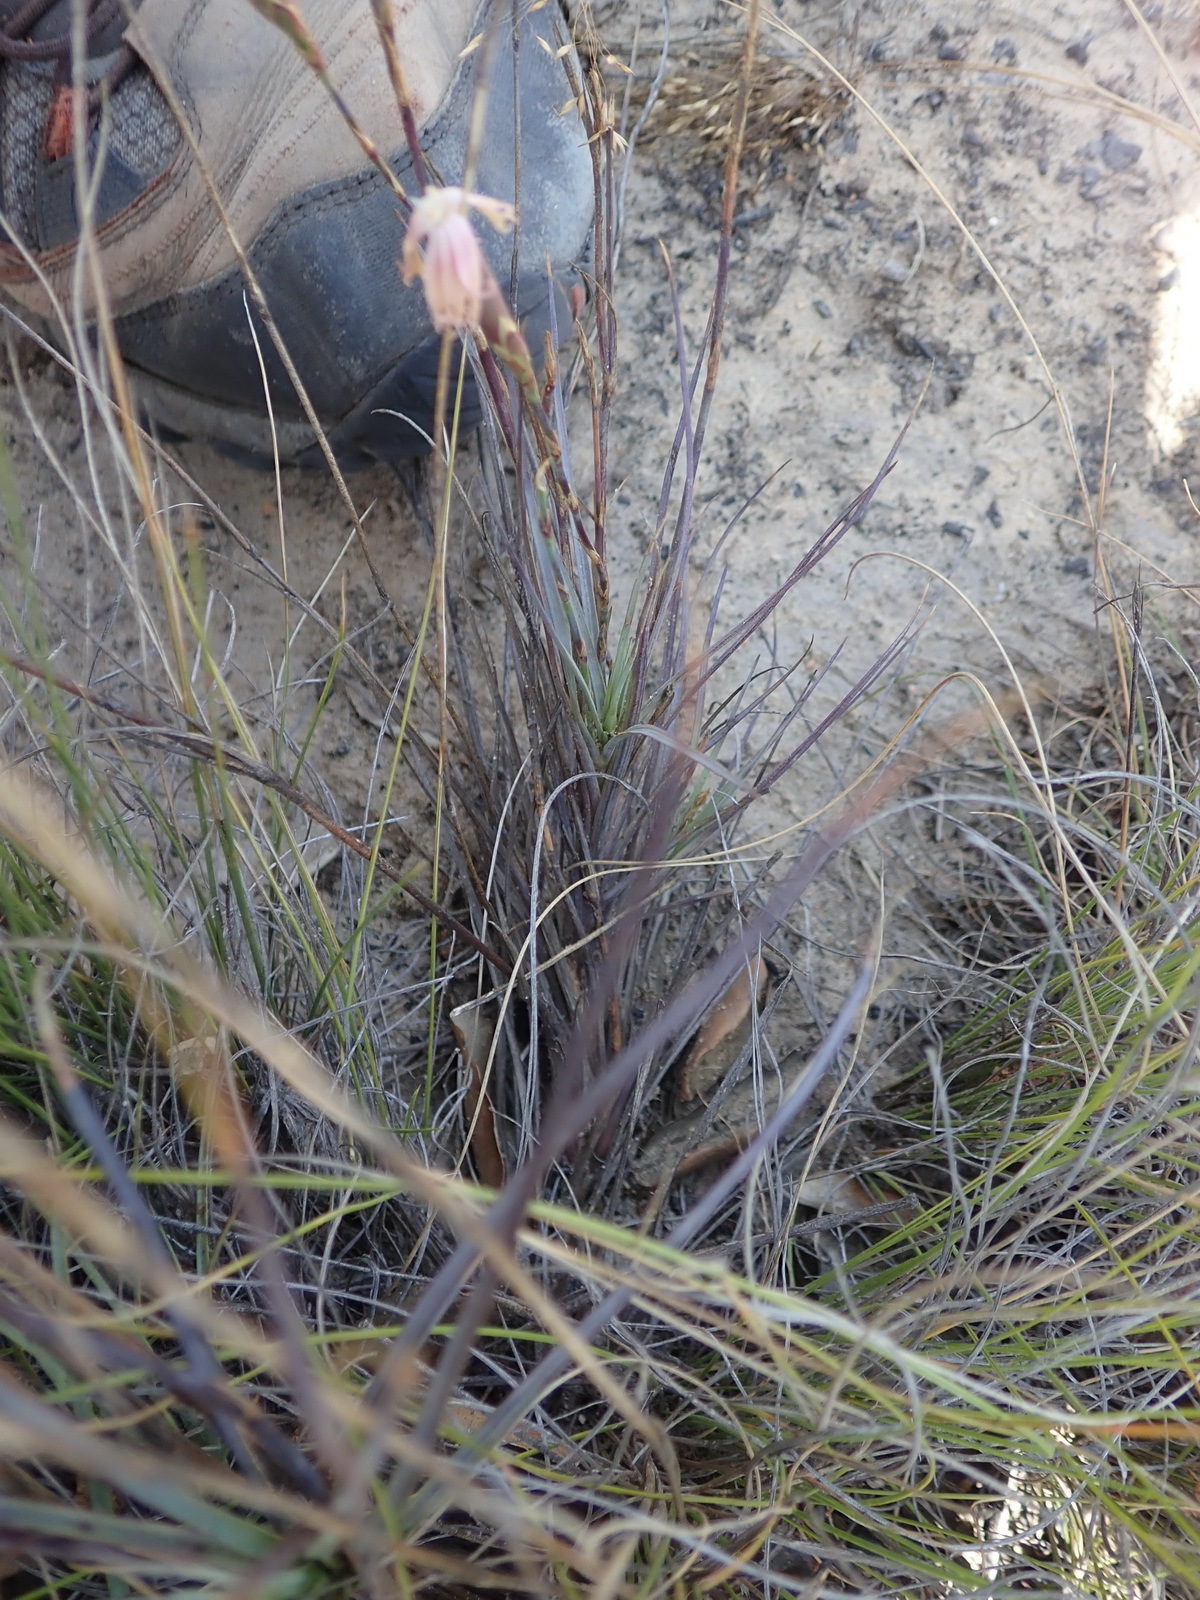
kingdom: Plantae
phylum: Tracheophyta
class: Magnoliopsida
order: Caryophyllales
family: Caryophyllaceae
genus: Dianthus
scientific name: Dianthus bolusii
